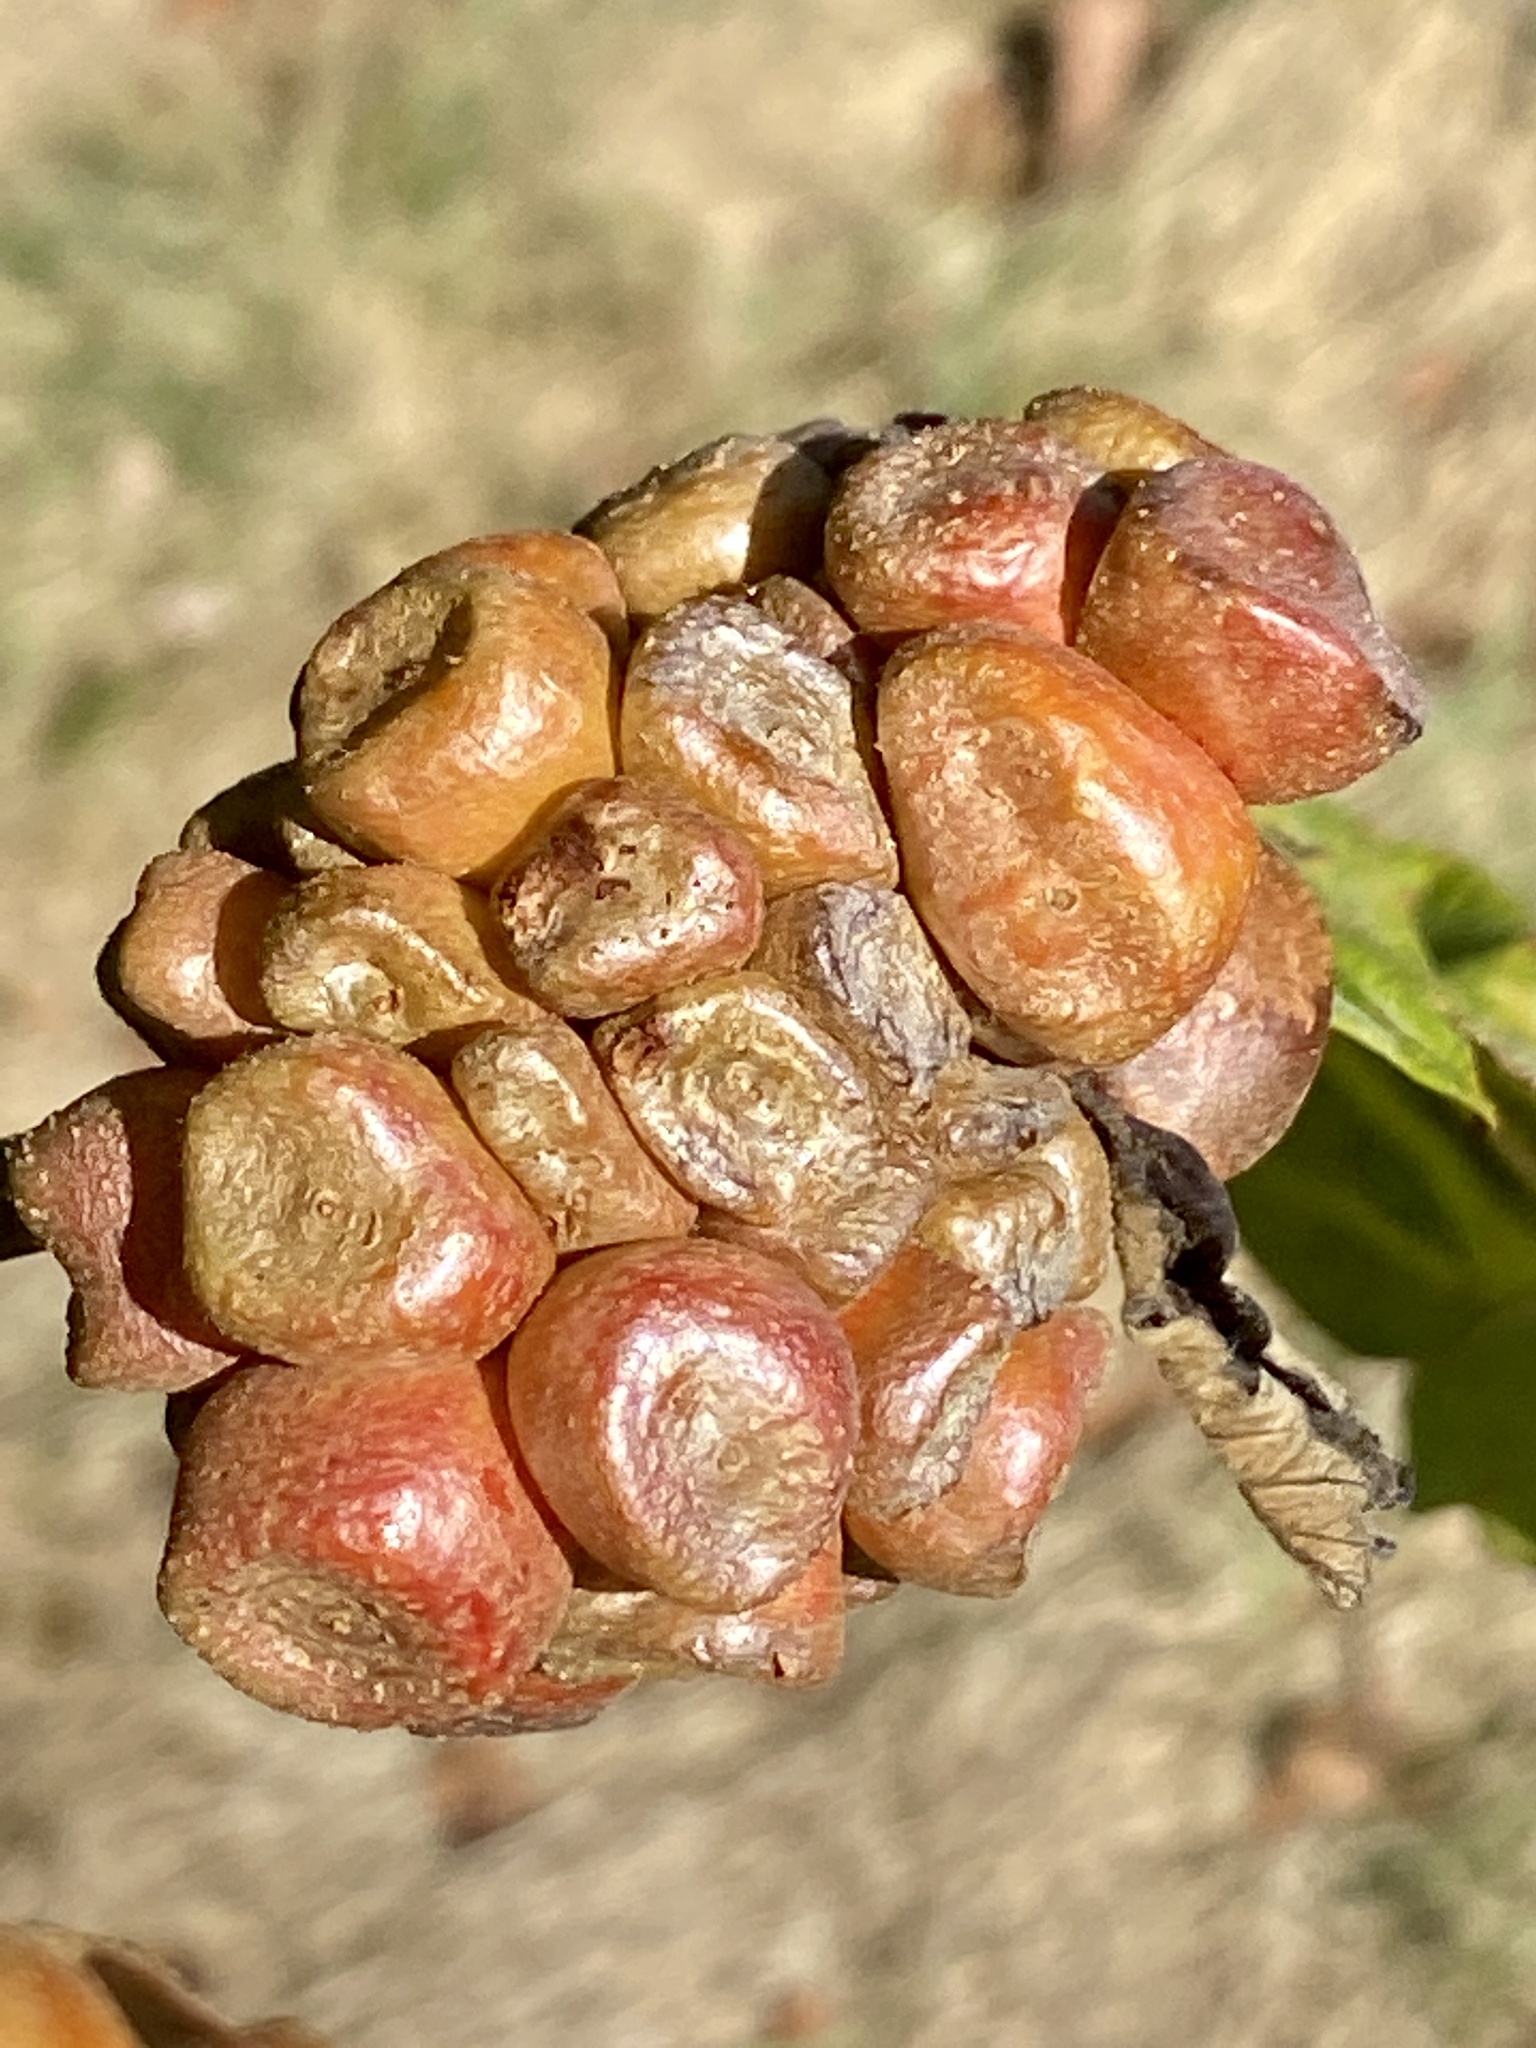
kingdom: Animalia
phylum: Arthropoda
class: Insecta
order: Hymenoptera
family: Cynipidae
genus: Andricus
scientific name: Andricus
